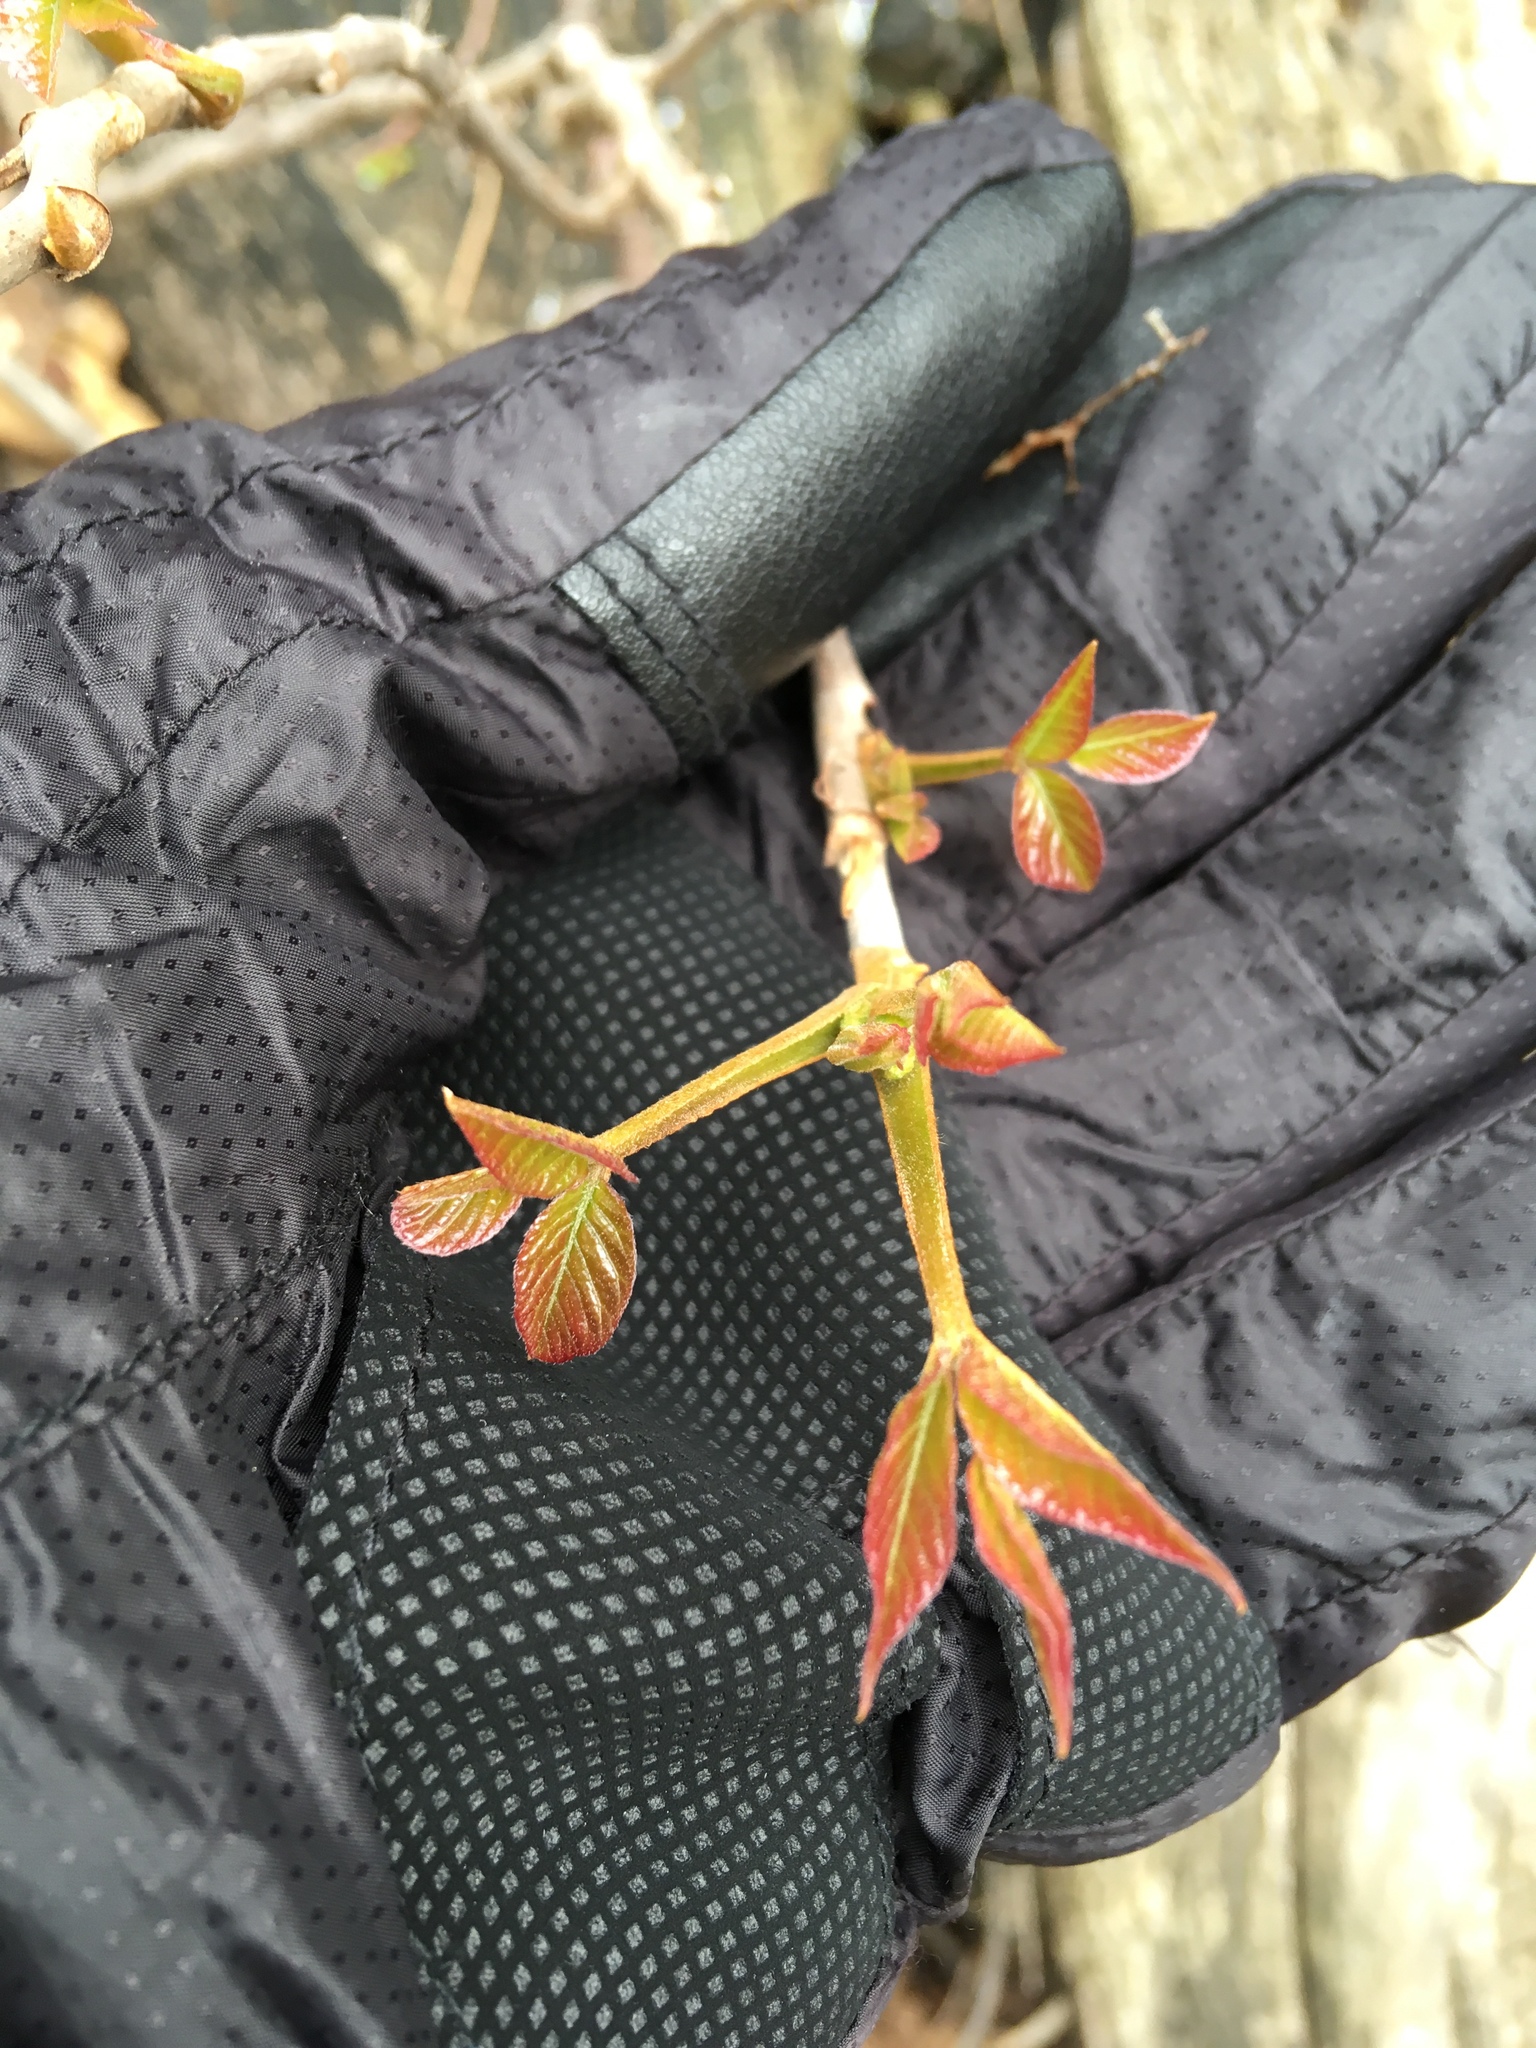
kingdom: Plantae
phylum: Tracheophyta
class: Magnoliopsida
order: Sapindales
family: Anacardiaceae
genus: Toxicodendron
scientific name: Toxicodendron radicans
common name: Poison ivy
